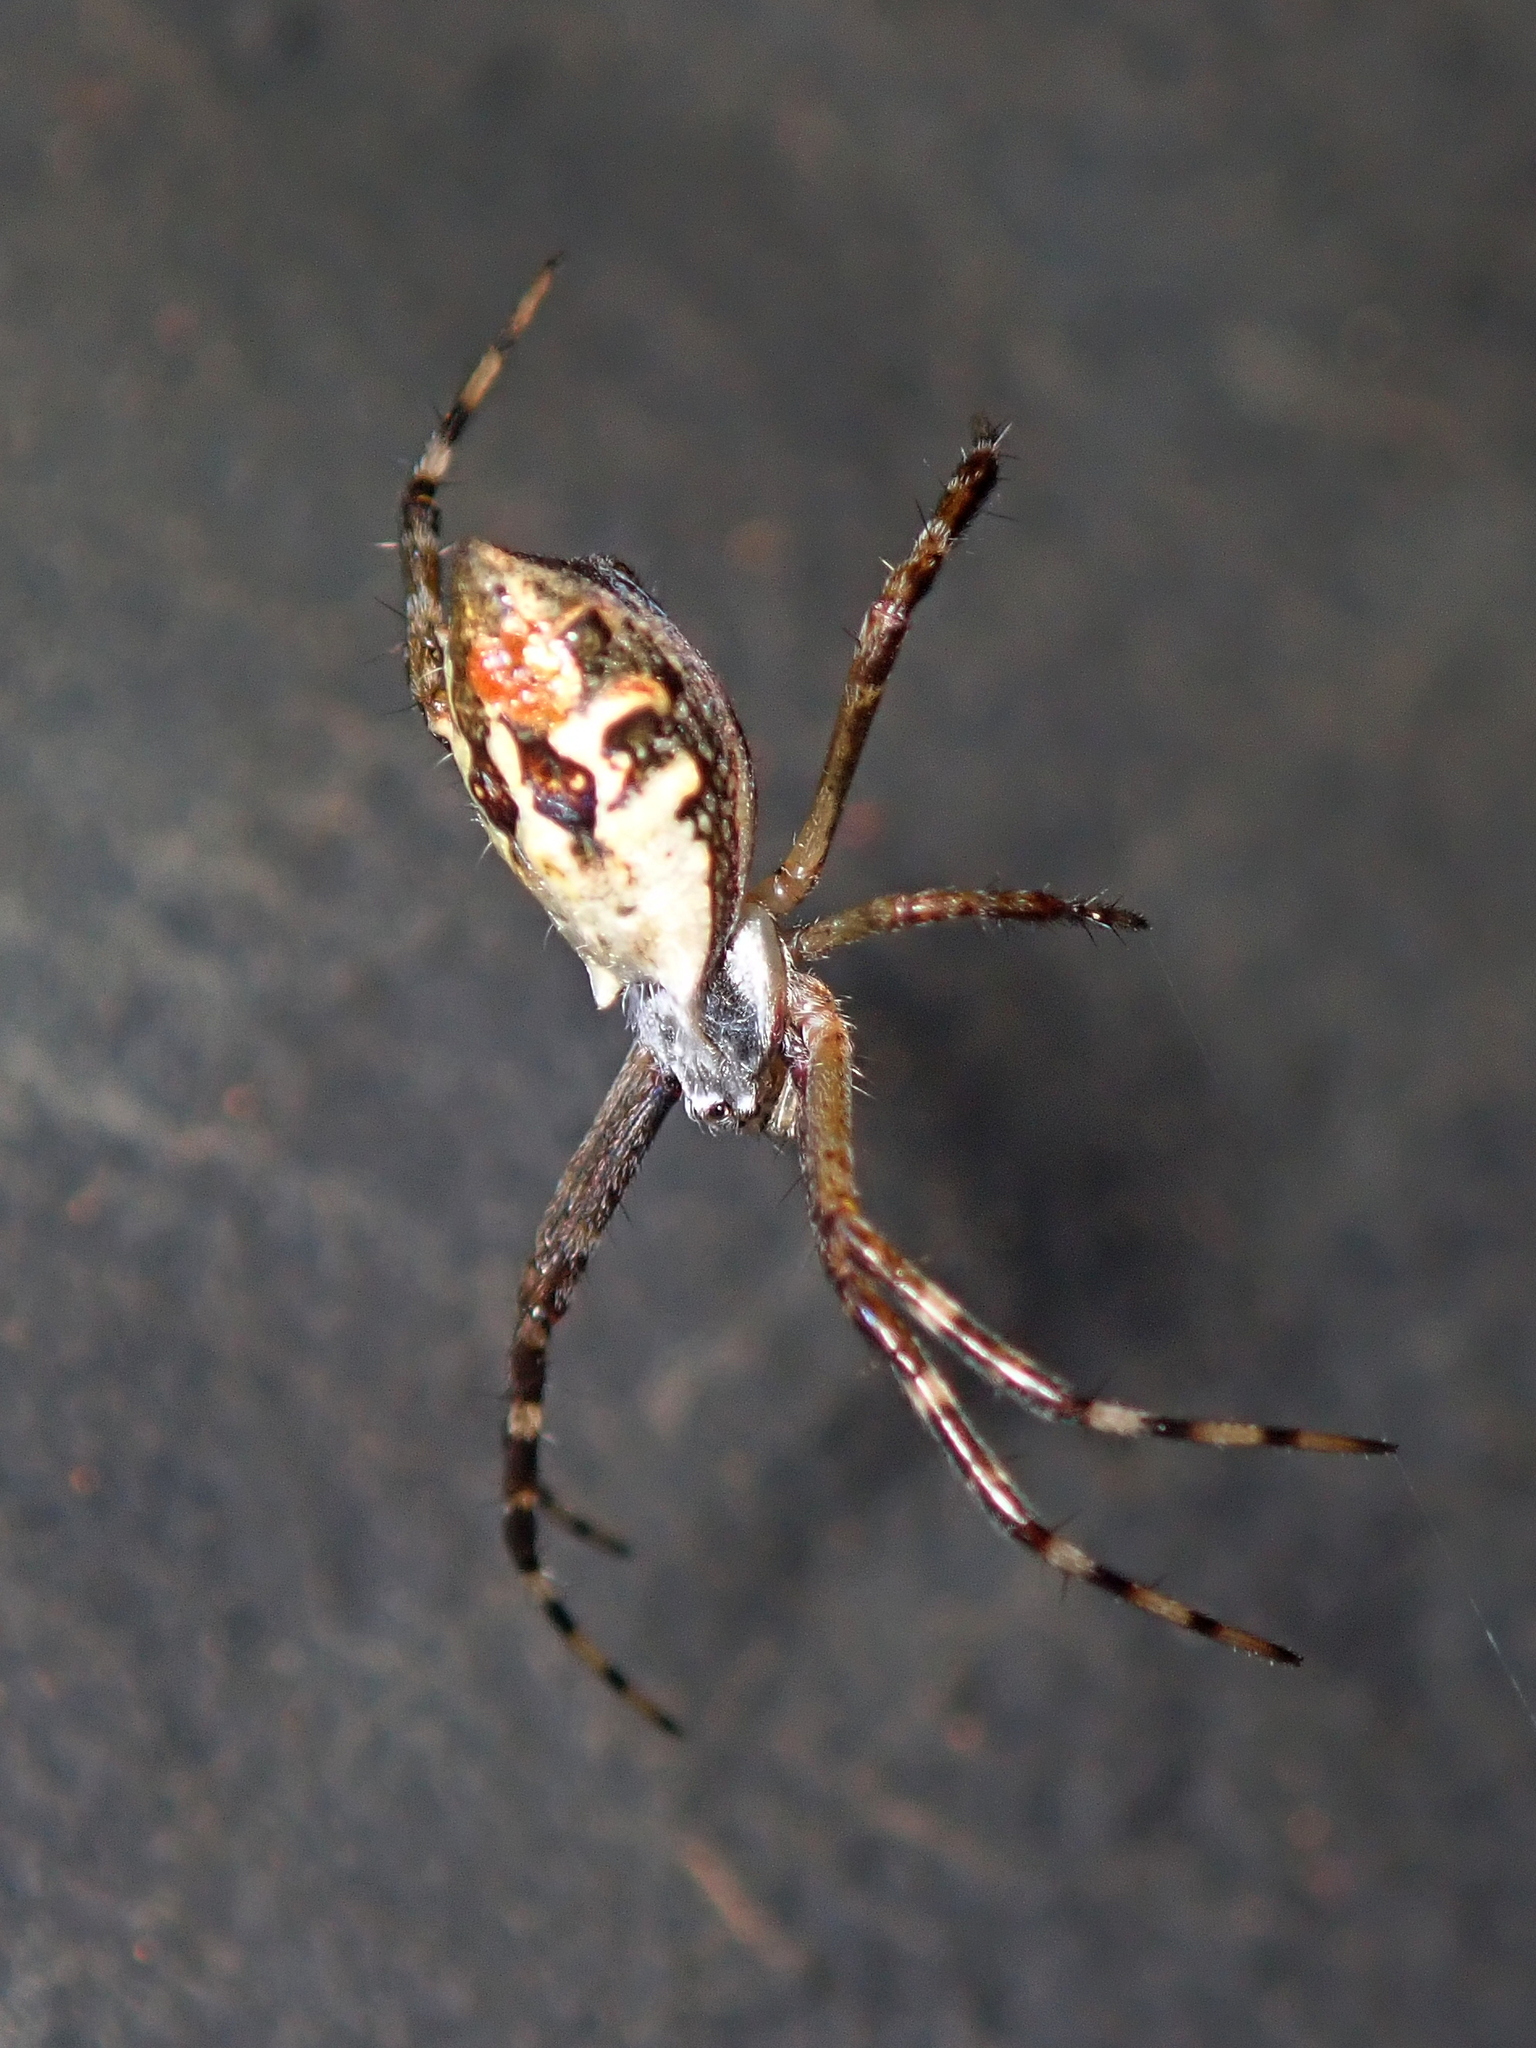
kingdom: Animalia
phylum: Arthropoda
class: Arachnida
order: Araneae
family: Araneidae
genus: Argiope
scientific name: Argiope argentata
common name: Orb weavers
